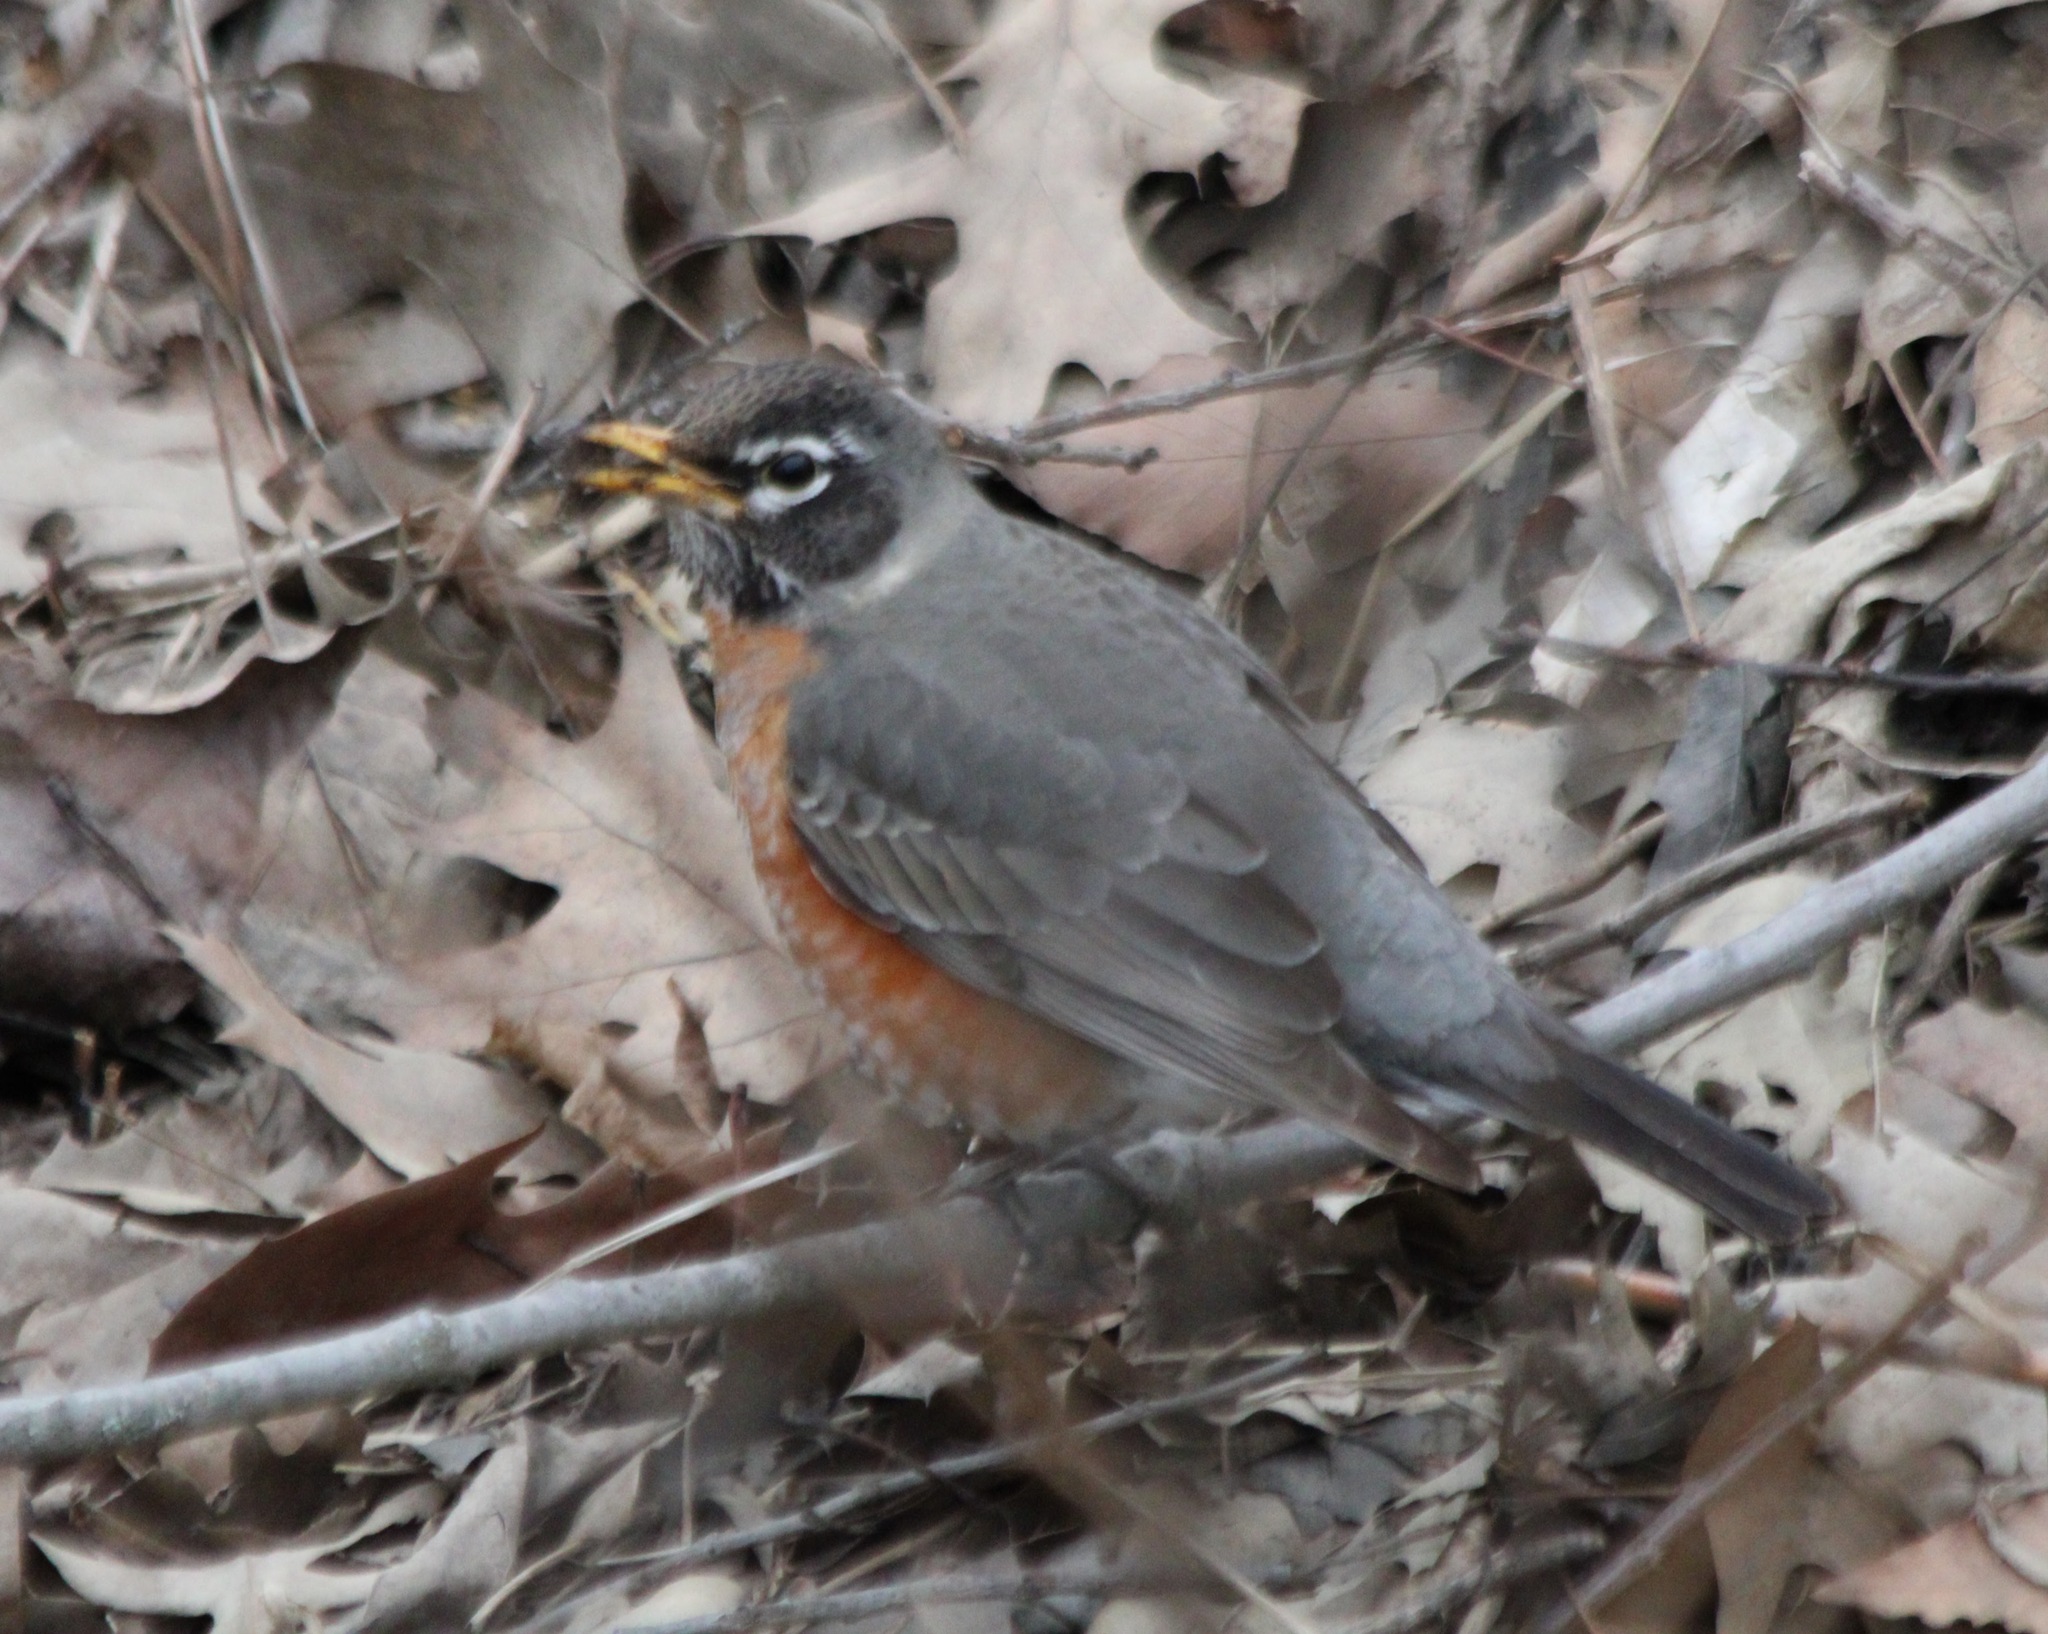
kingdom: Animalia
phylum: Chordata
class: Aves
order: Passeriformes
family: Turdidae
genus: Turdus
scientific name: Turdus migratorius
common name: American robin
